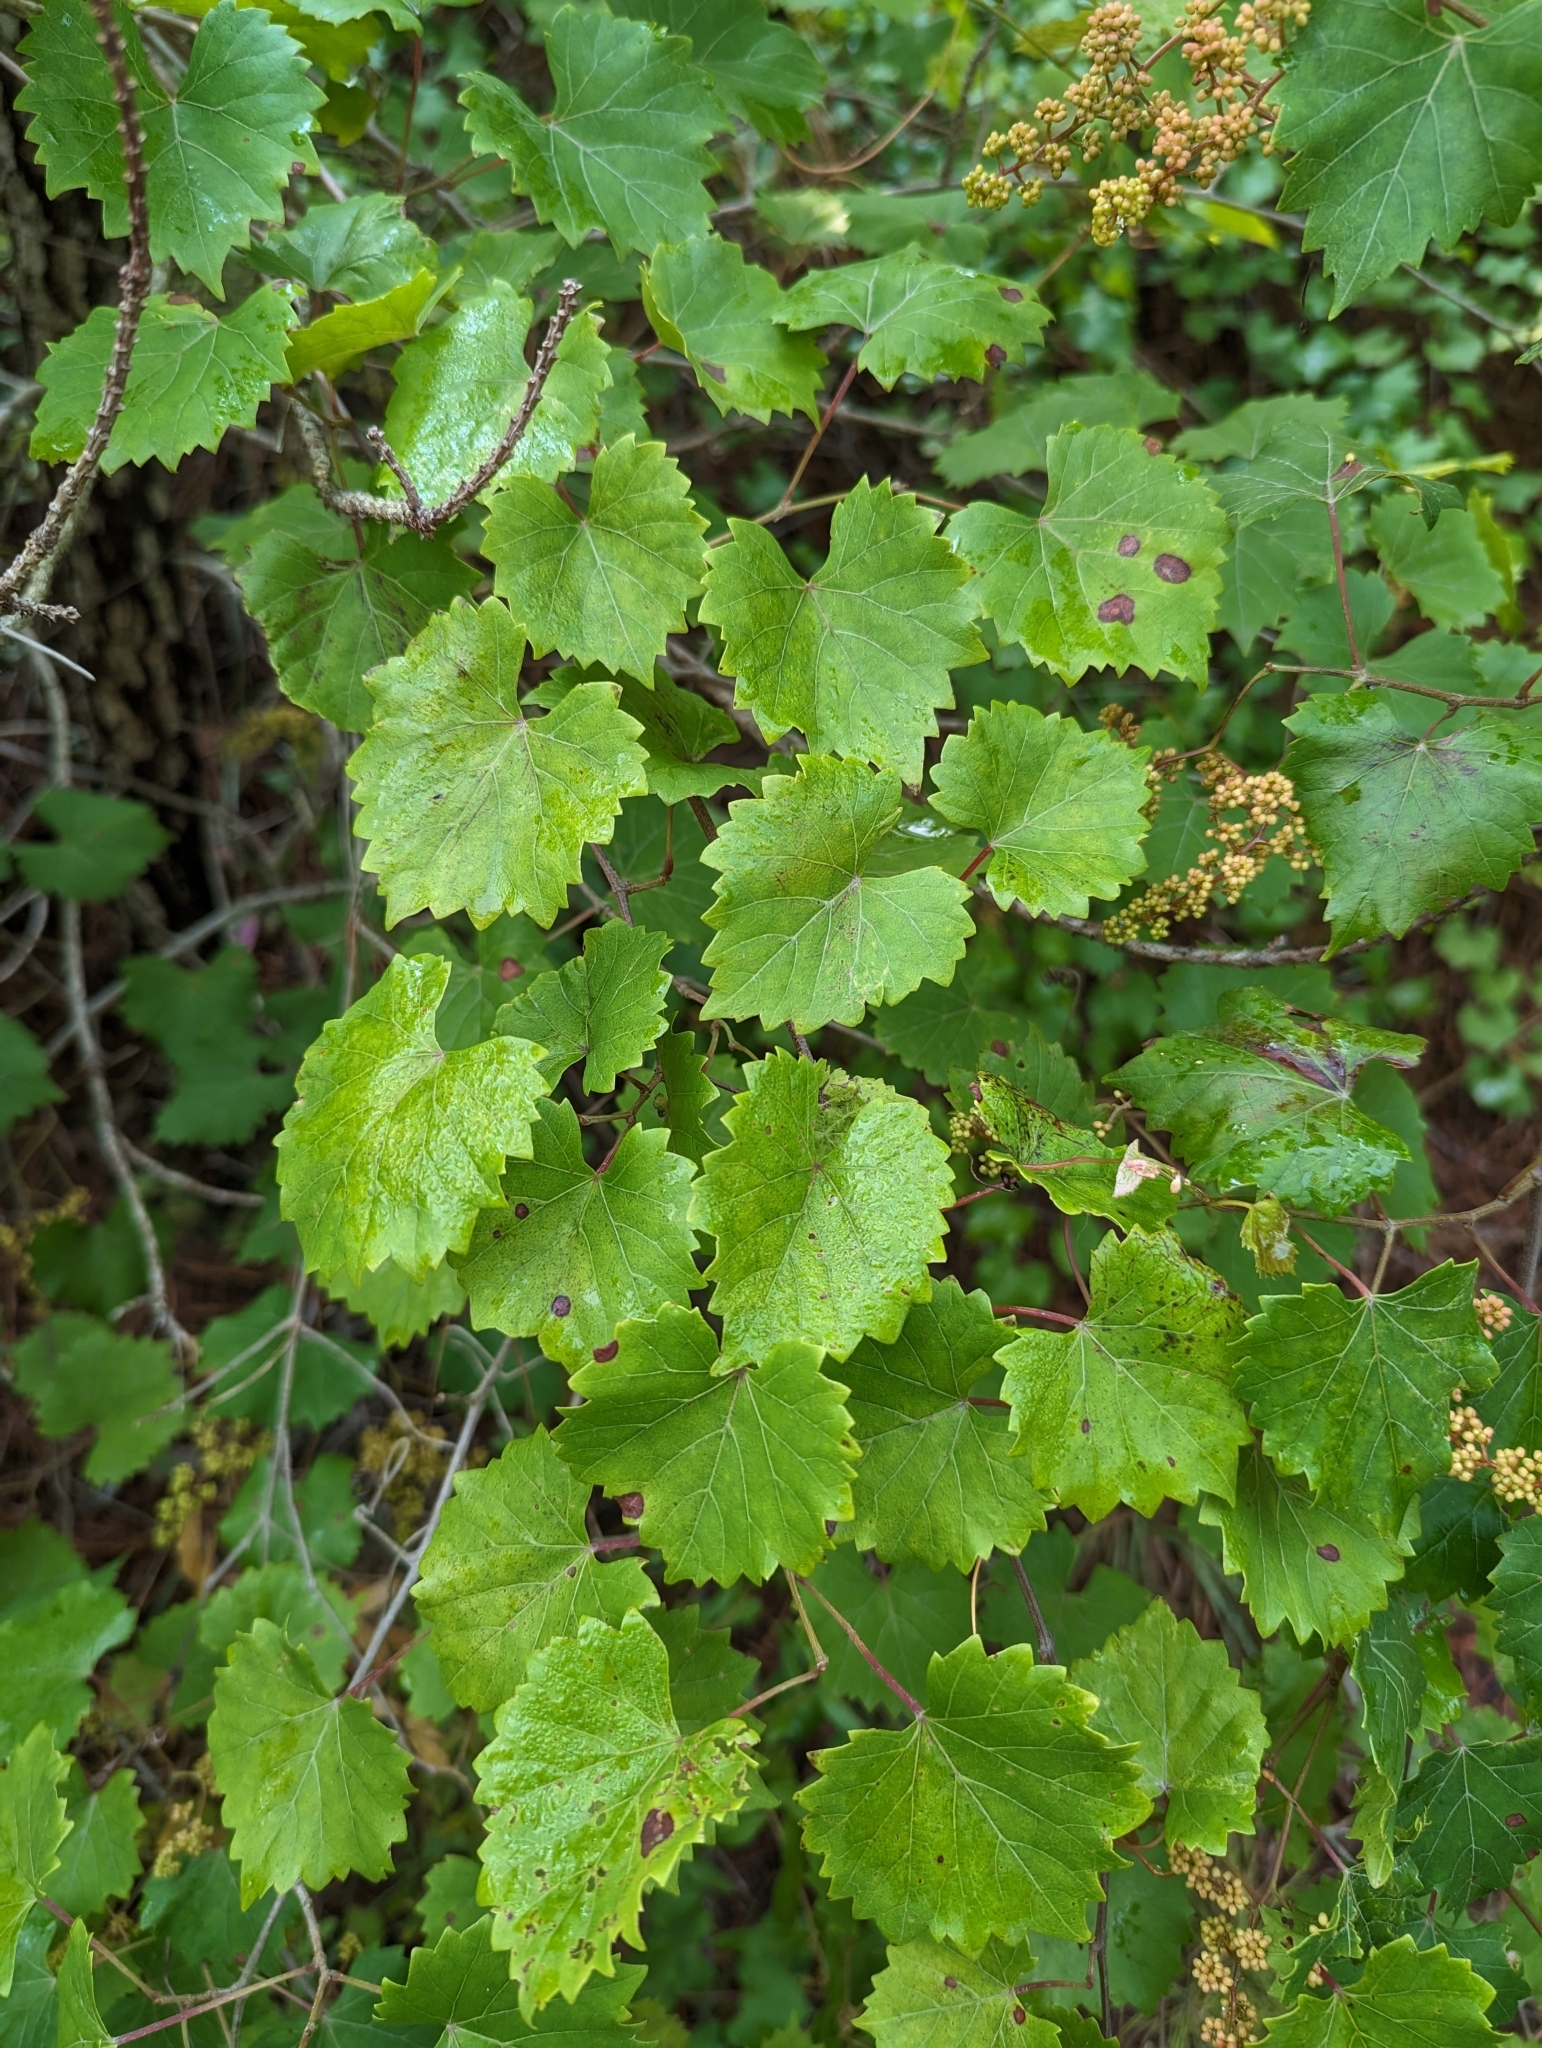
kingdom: Plantae
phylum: Tracheophyta
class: Magnoliopsida
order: Vitales
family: Vitaceae
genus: Vitis
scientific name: Vitis rotundifolia
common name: Muscadine grape
